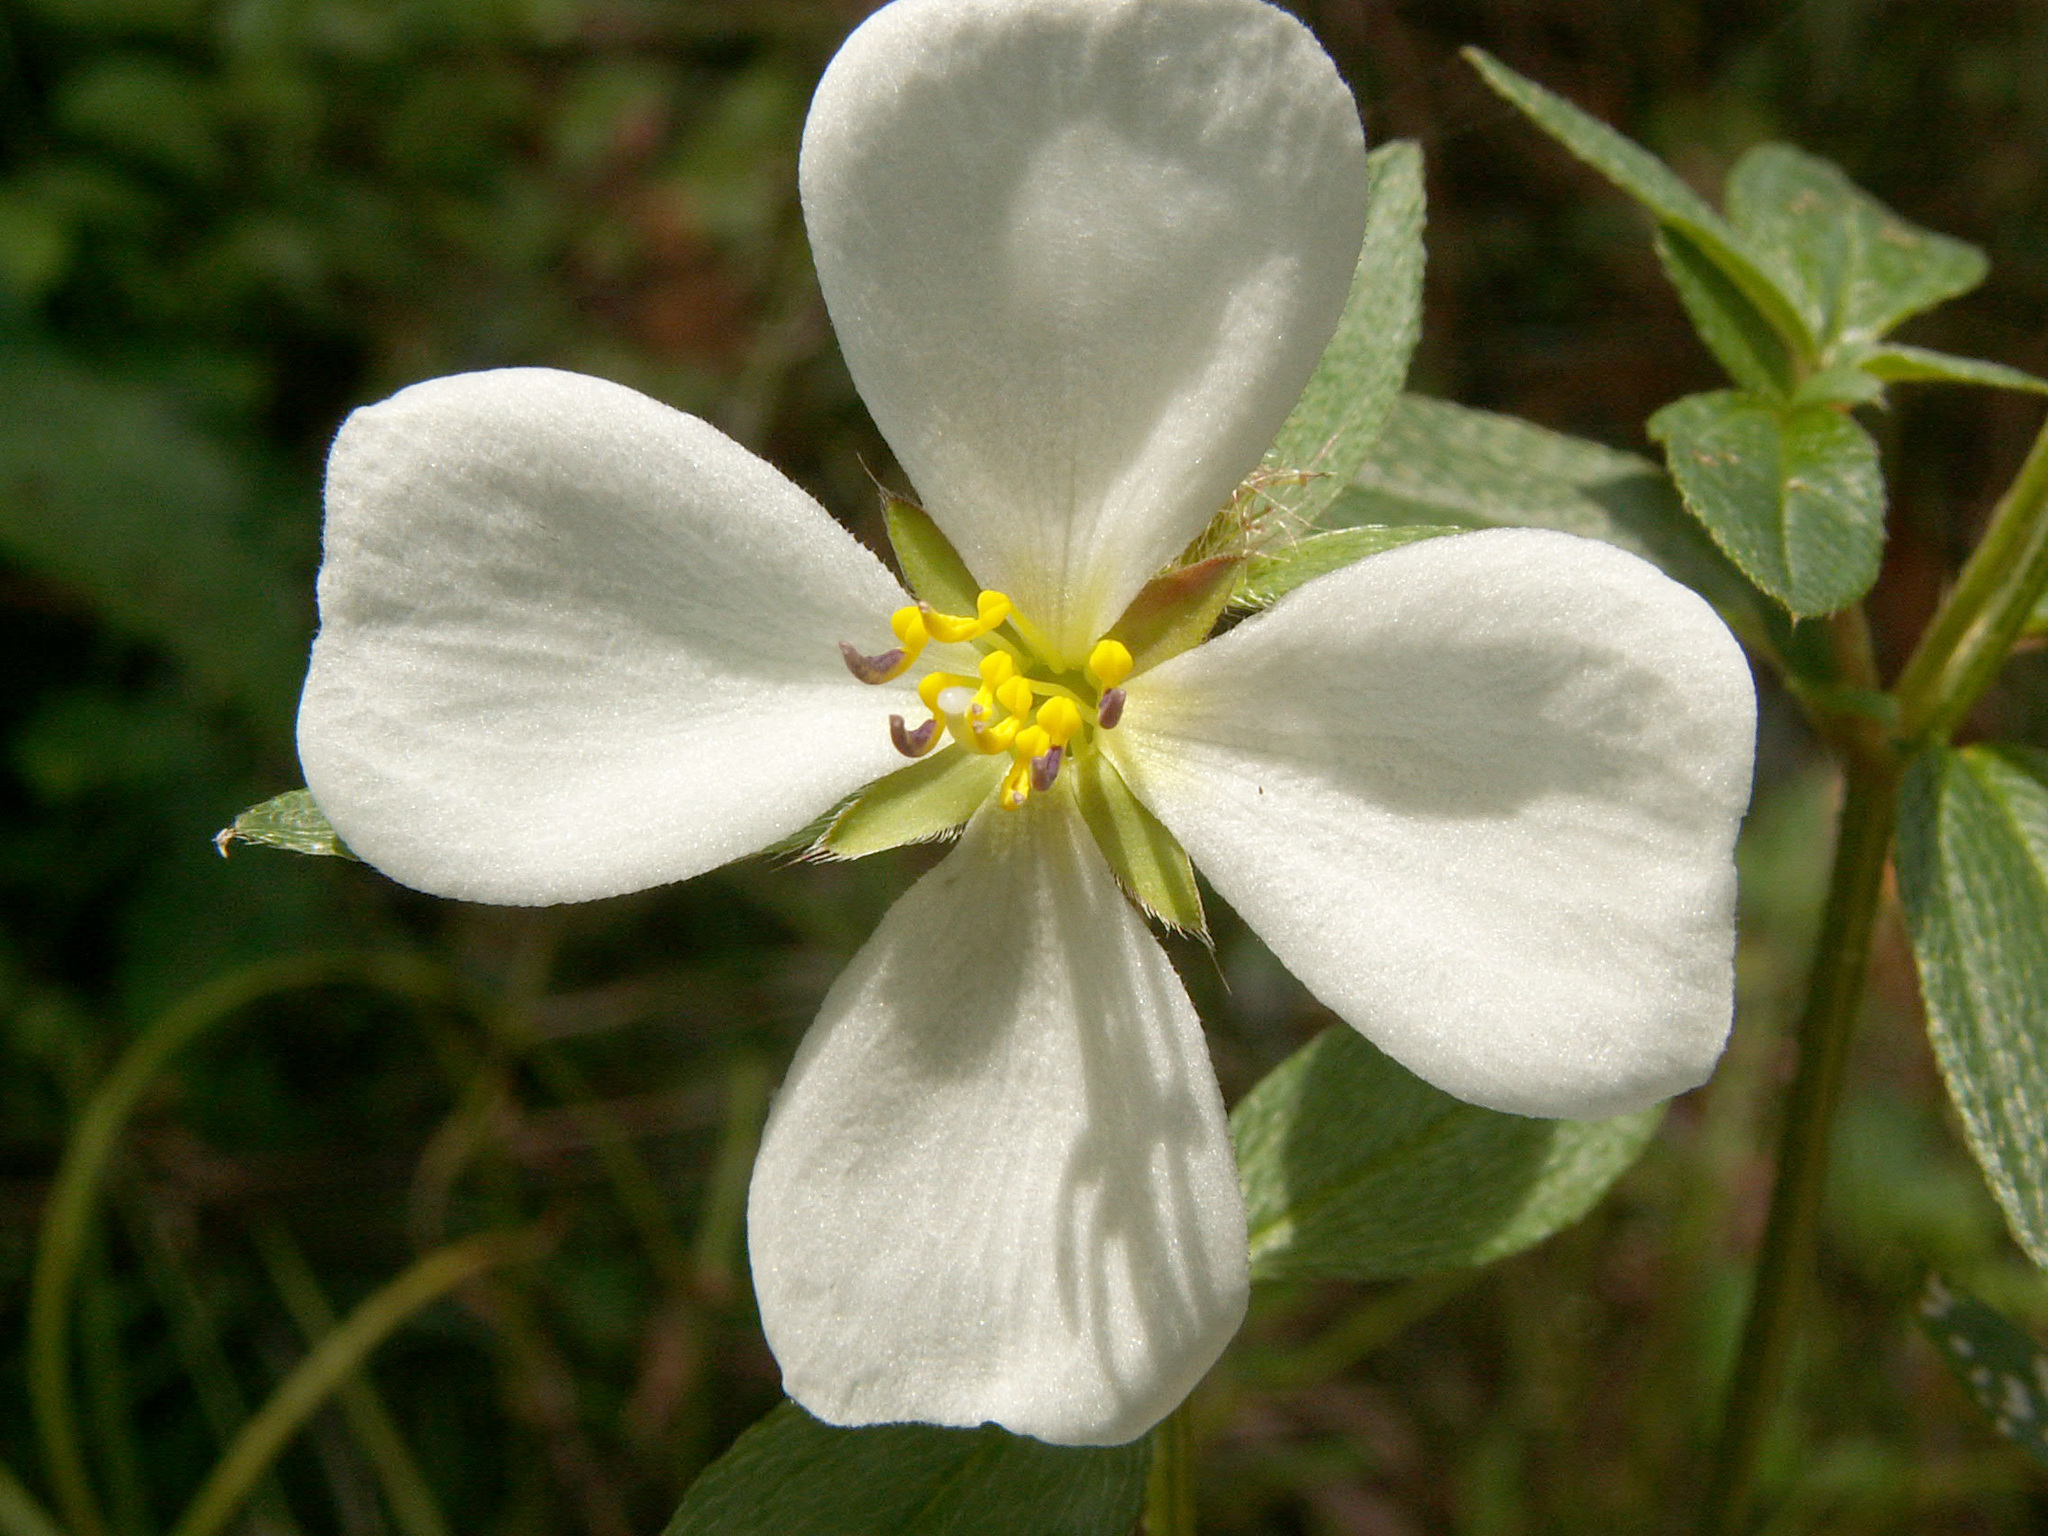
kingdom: Plantae
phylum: Tracheophyta
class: Magnoliopsida
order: Myrtales
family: Melastomataceae
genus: Pterolepis
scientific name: Pterolepis glomerata
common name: False meadowbeauty
